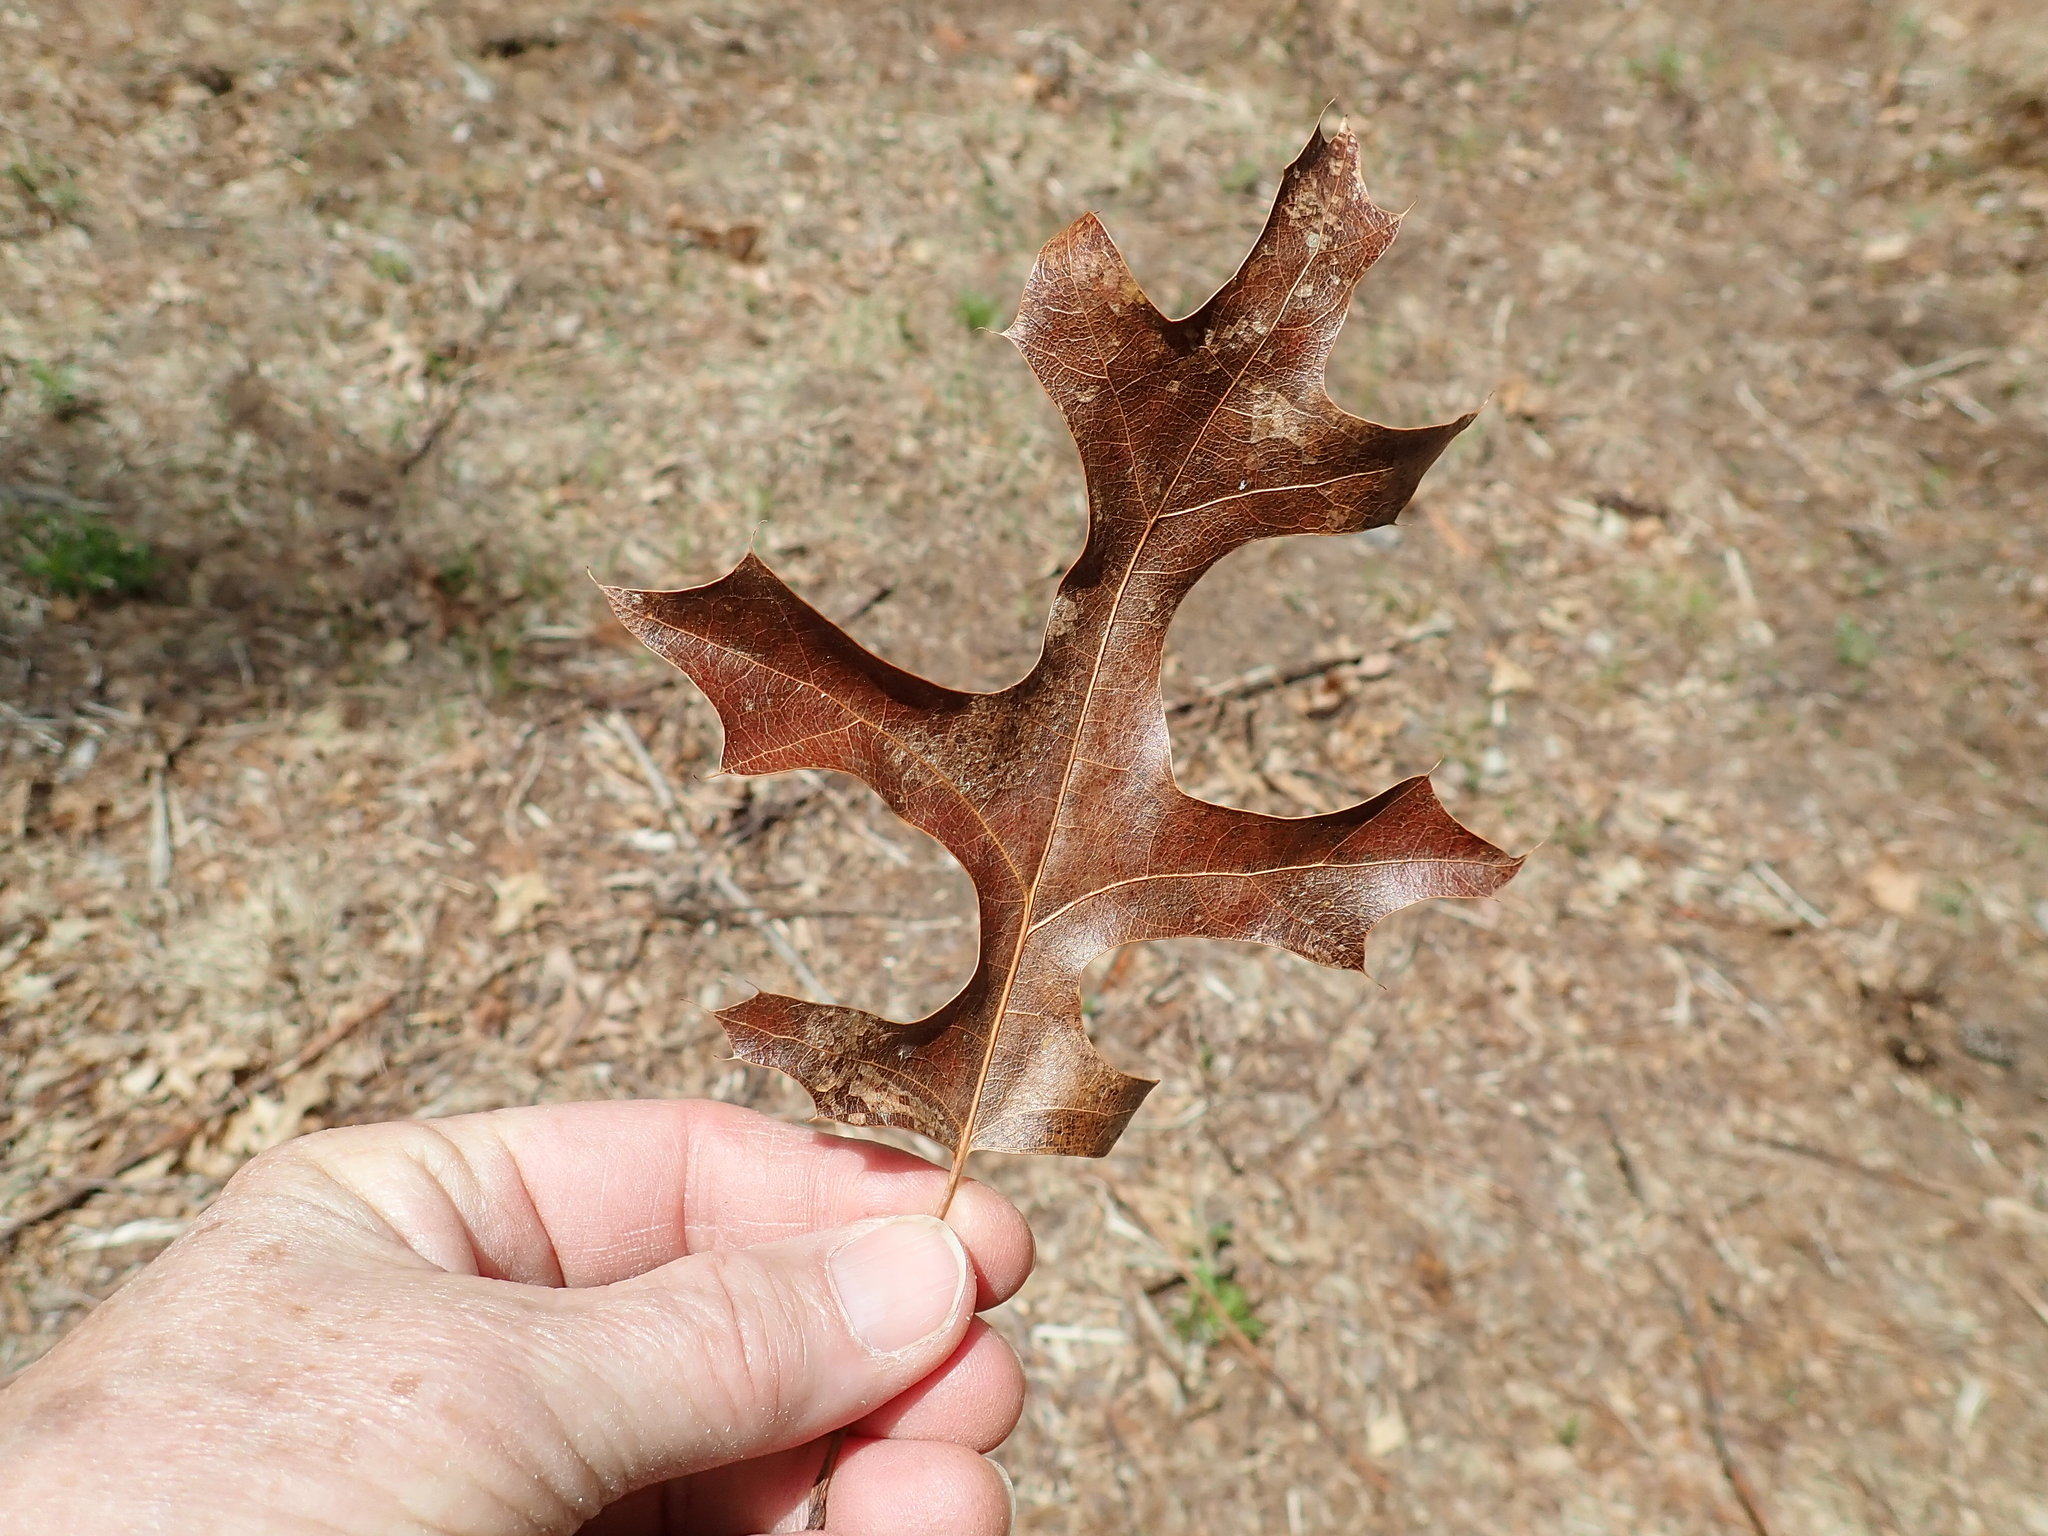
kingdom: Plantae
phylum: Tracheophyta
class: Magnoliopsida
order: Fagales
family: Fagaceae
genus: Quercus
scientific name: Quercus coccinea
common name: Scarlet oak
